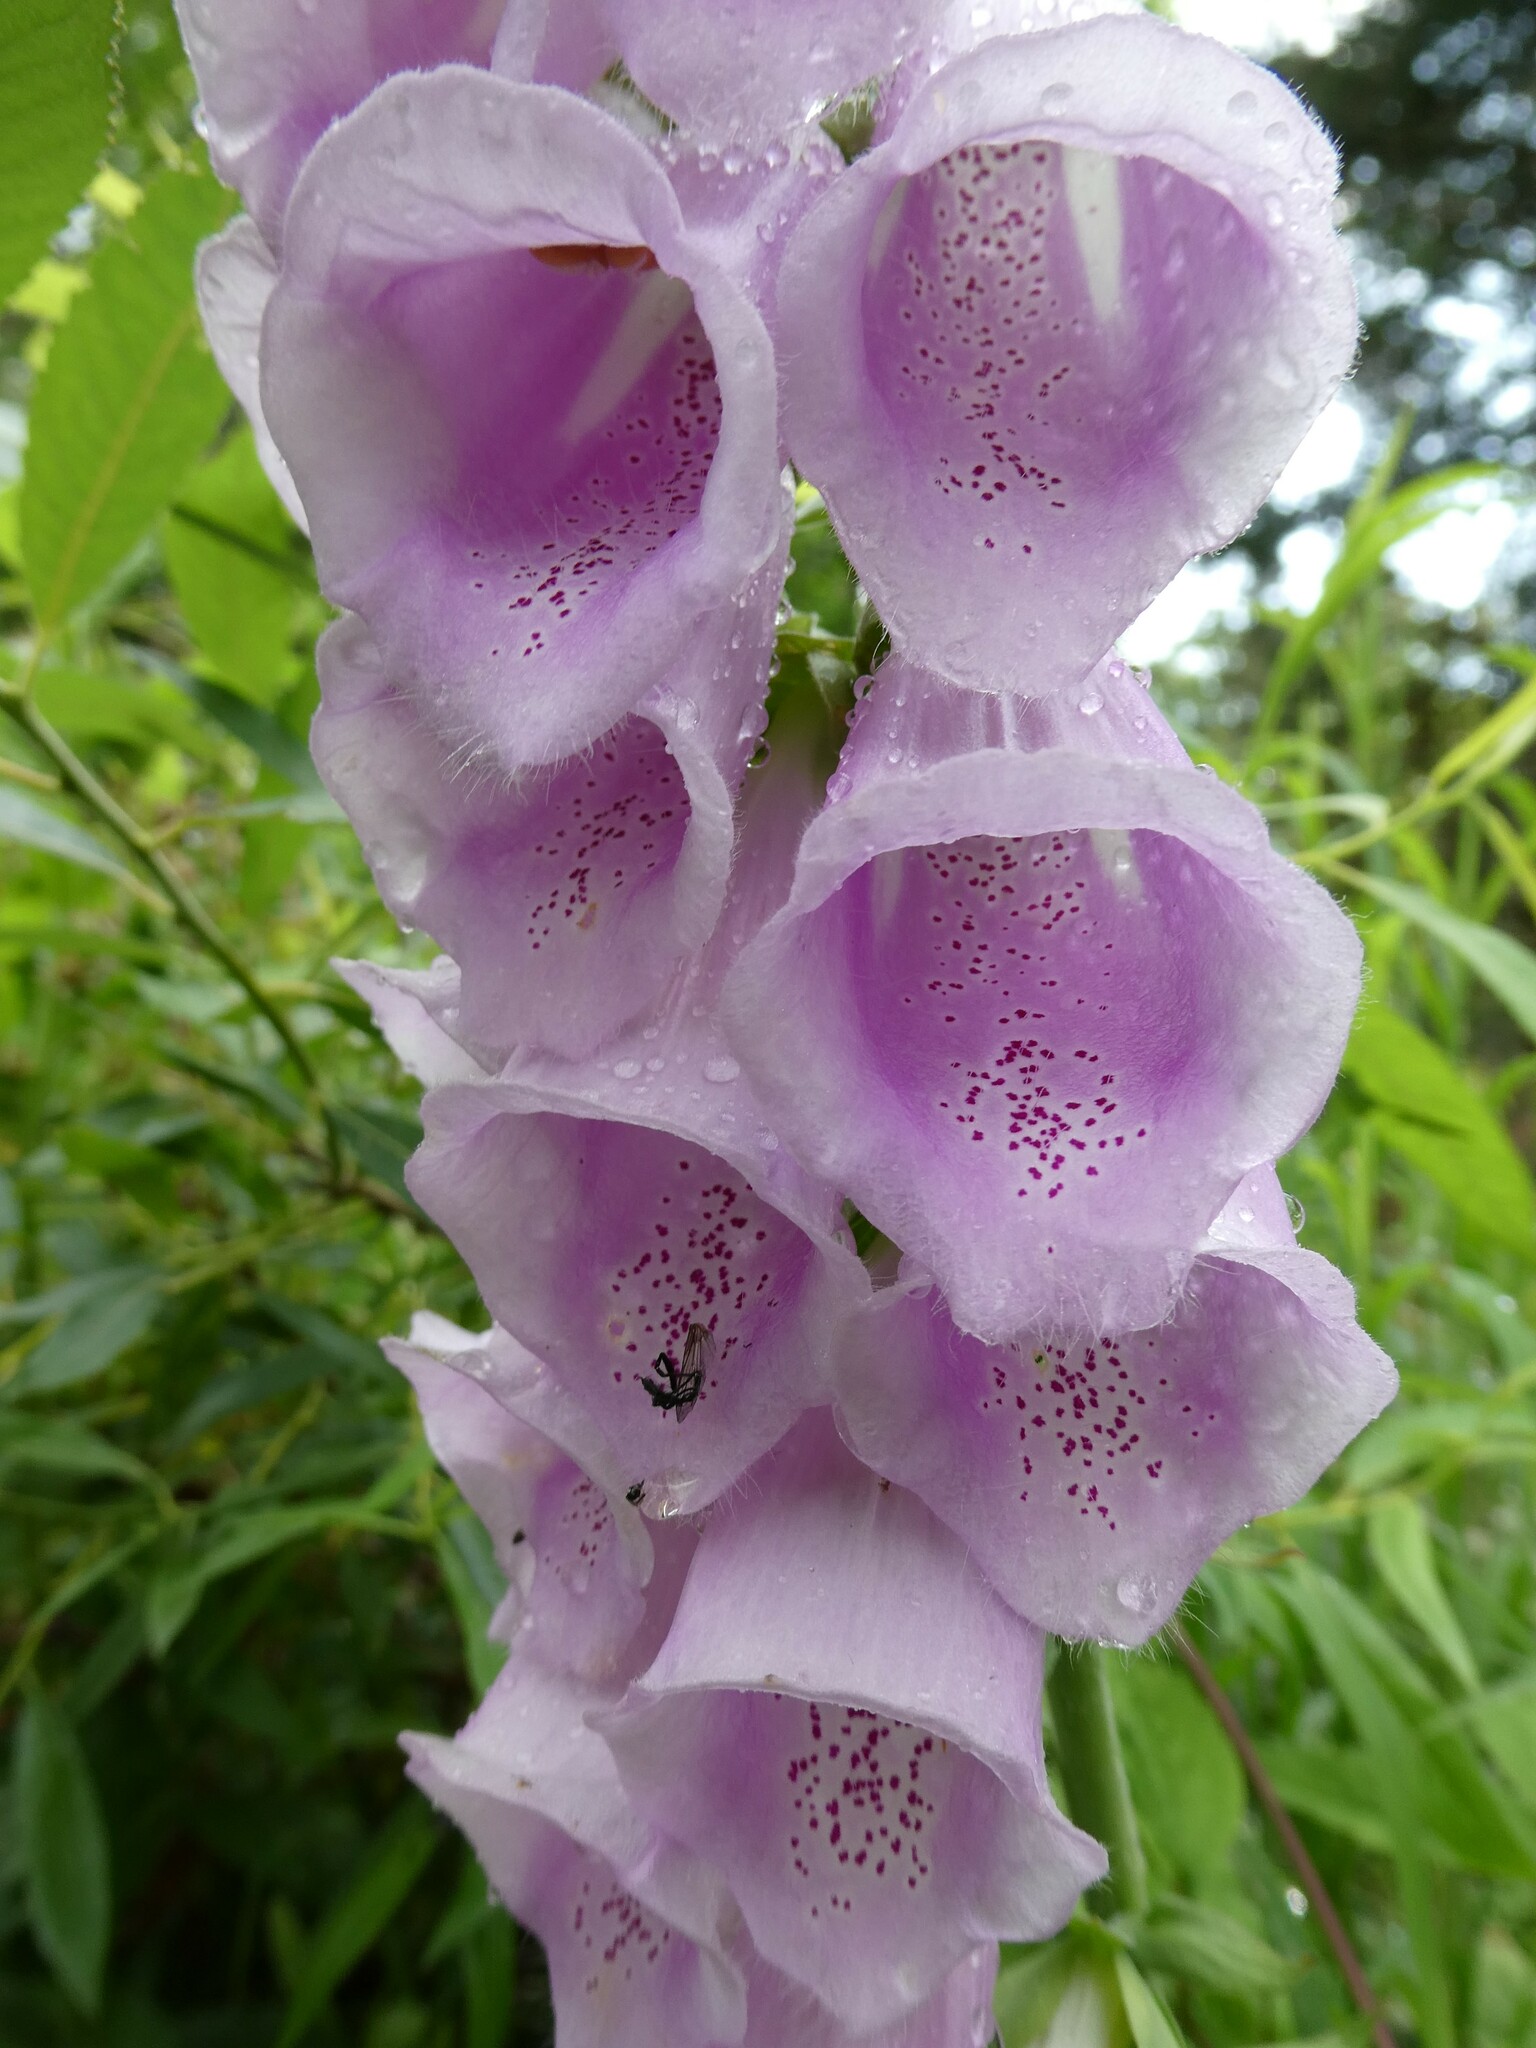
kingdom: Plantae
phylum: Tracheophyta
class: Magnoliopsida
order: Lamiales
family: Plantaginaceae
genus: Digitalis
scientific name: Digitalis purpurea
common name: Foxglove
